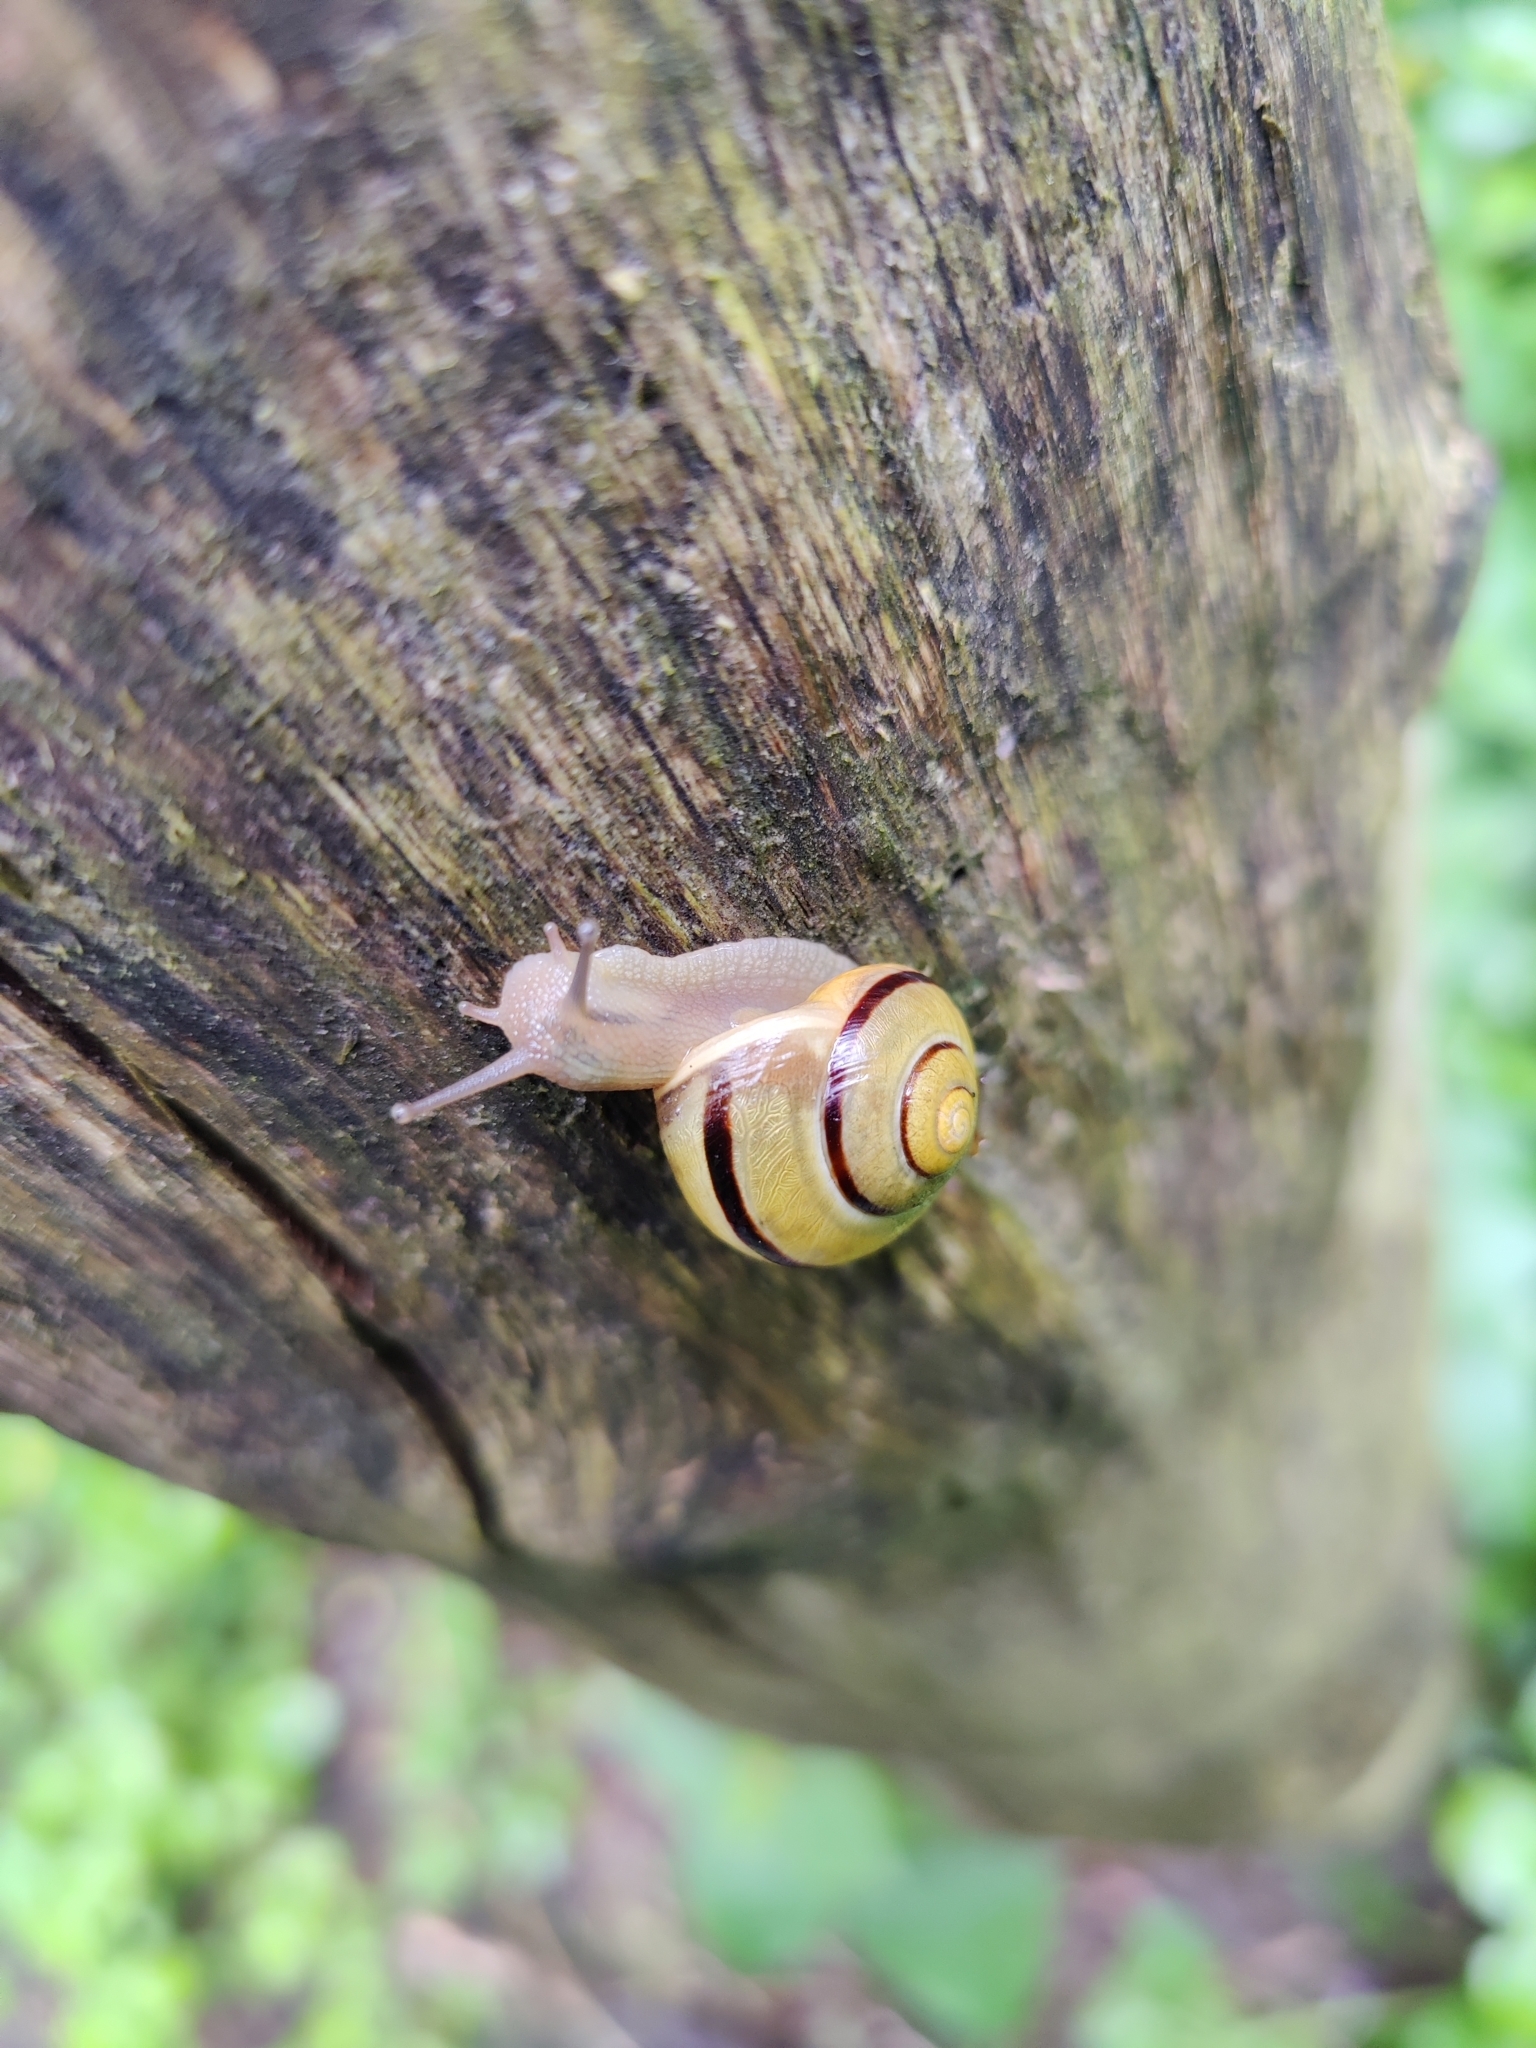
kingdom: Animalia
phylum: Mollusca
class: Gastropoda
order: Stylommatophora
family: Helicidae
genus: Cepaea
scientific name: Cepaea nemoralis
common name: Grovesnail
